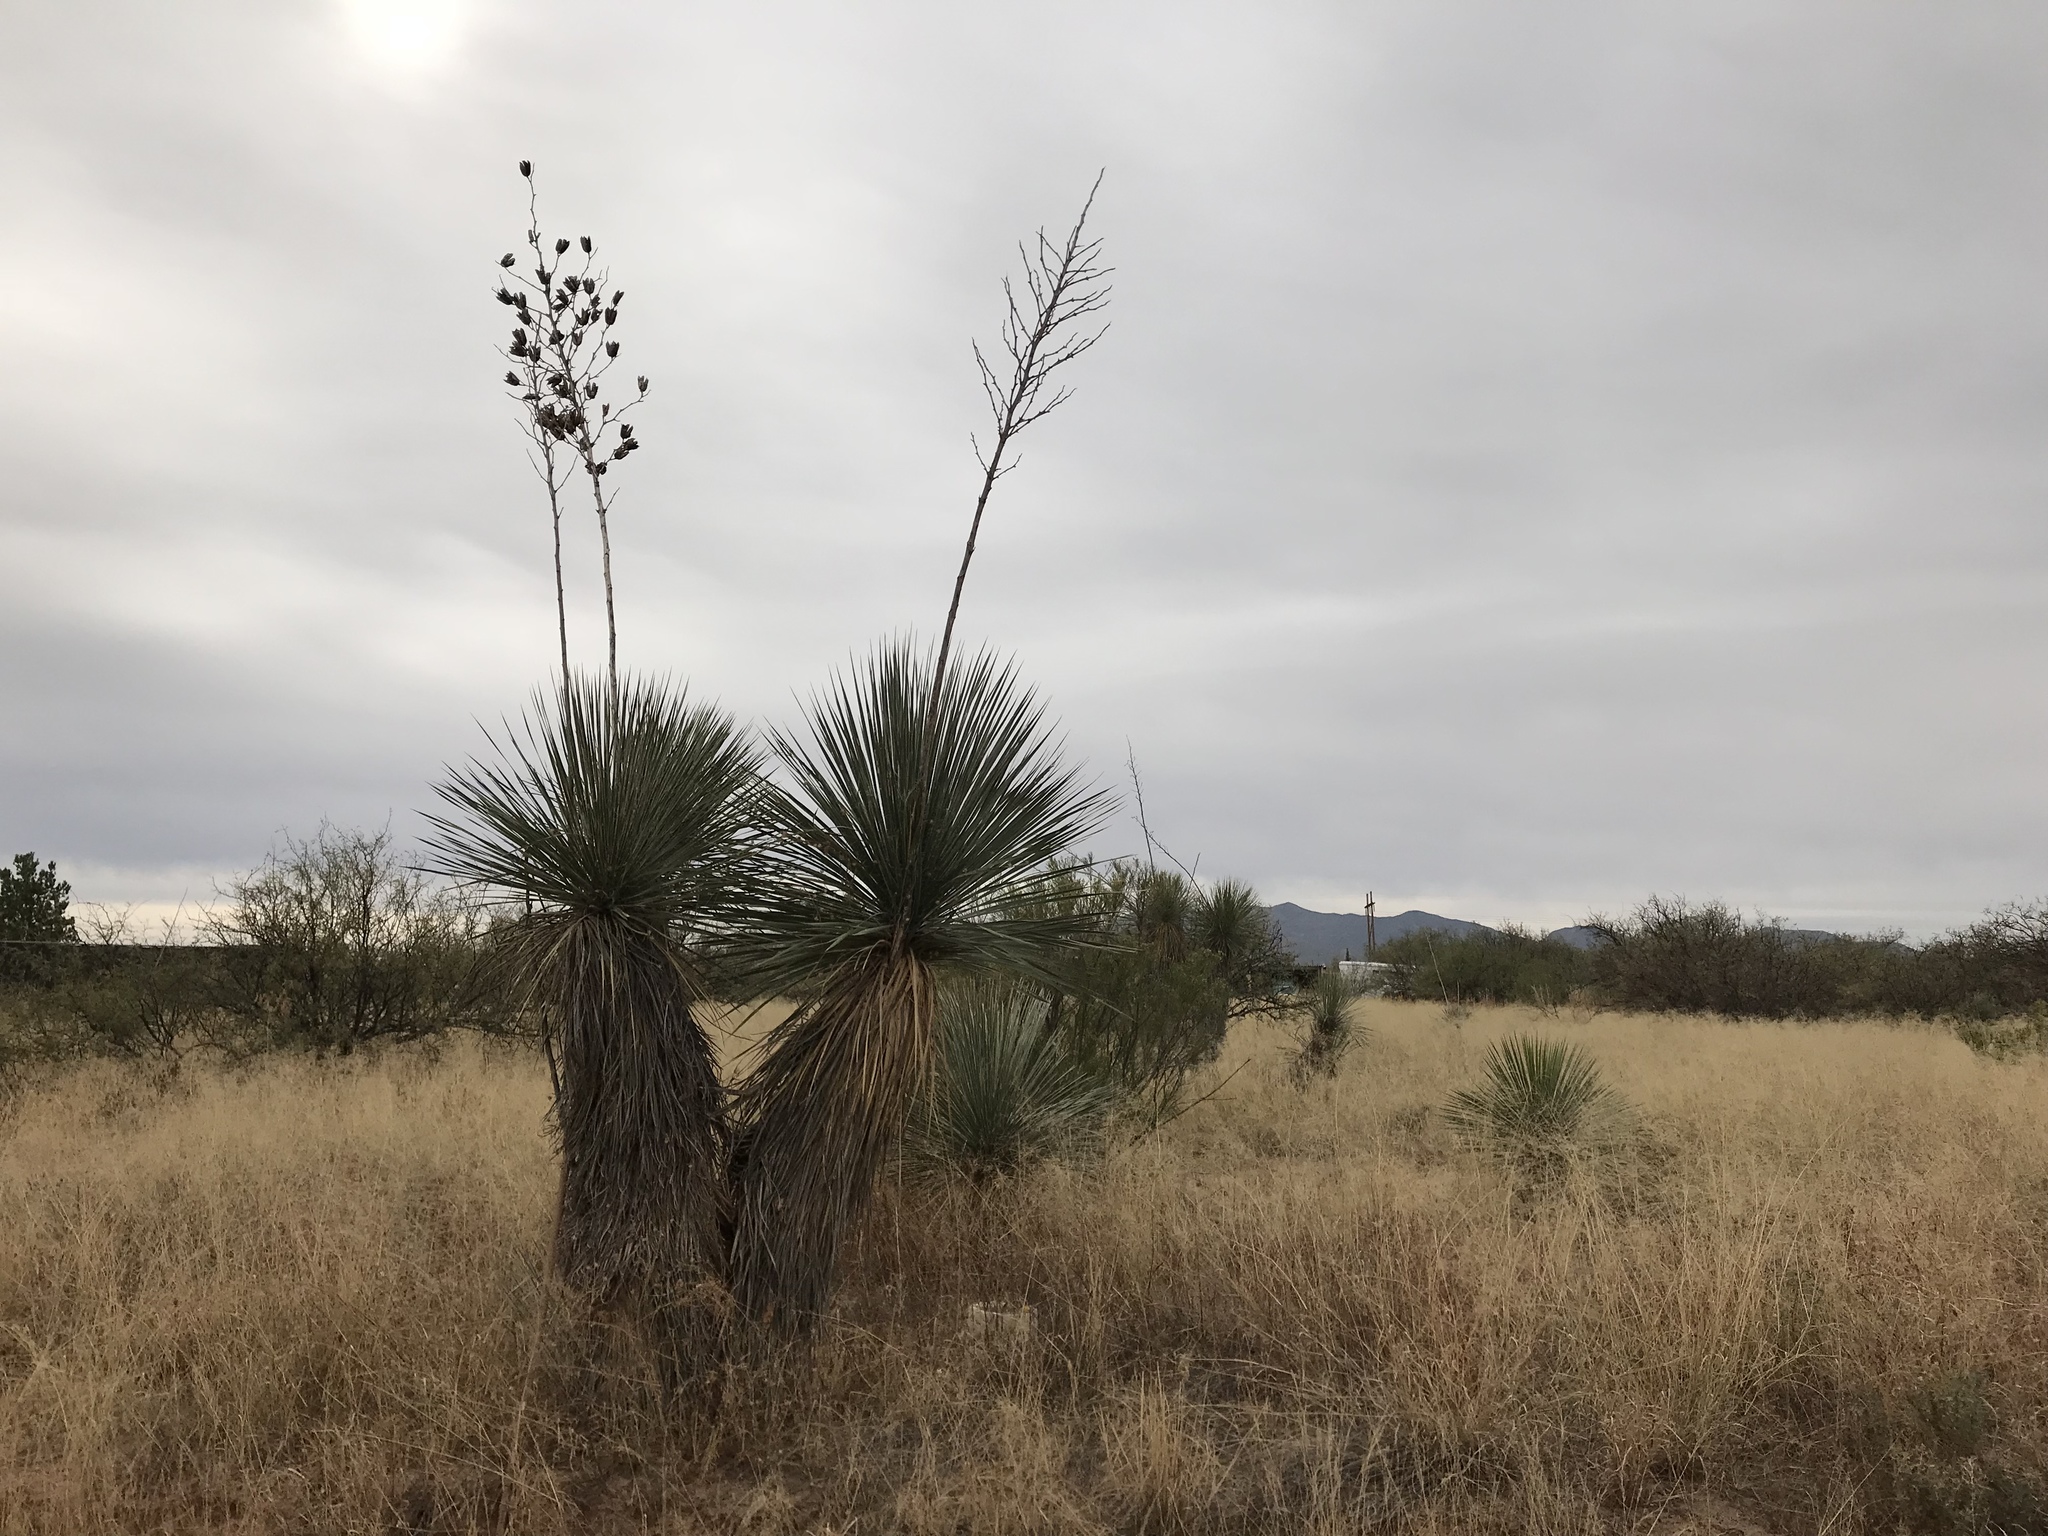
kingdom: Plantae
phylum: Tracheophyta
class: Liliopsida
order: Asparagales
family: Asparagaceae
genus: Yucca
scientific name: Yucca elata
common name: Palmella
